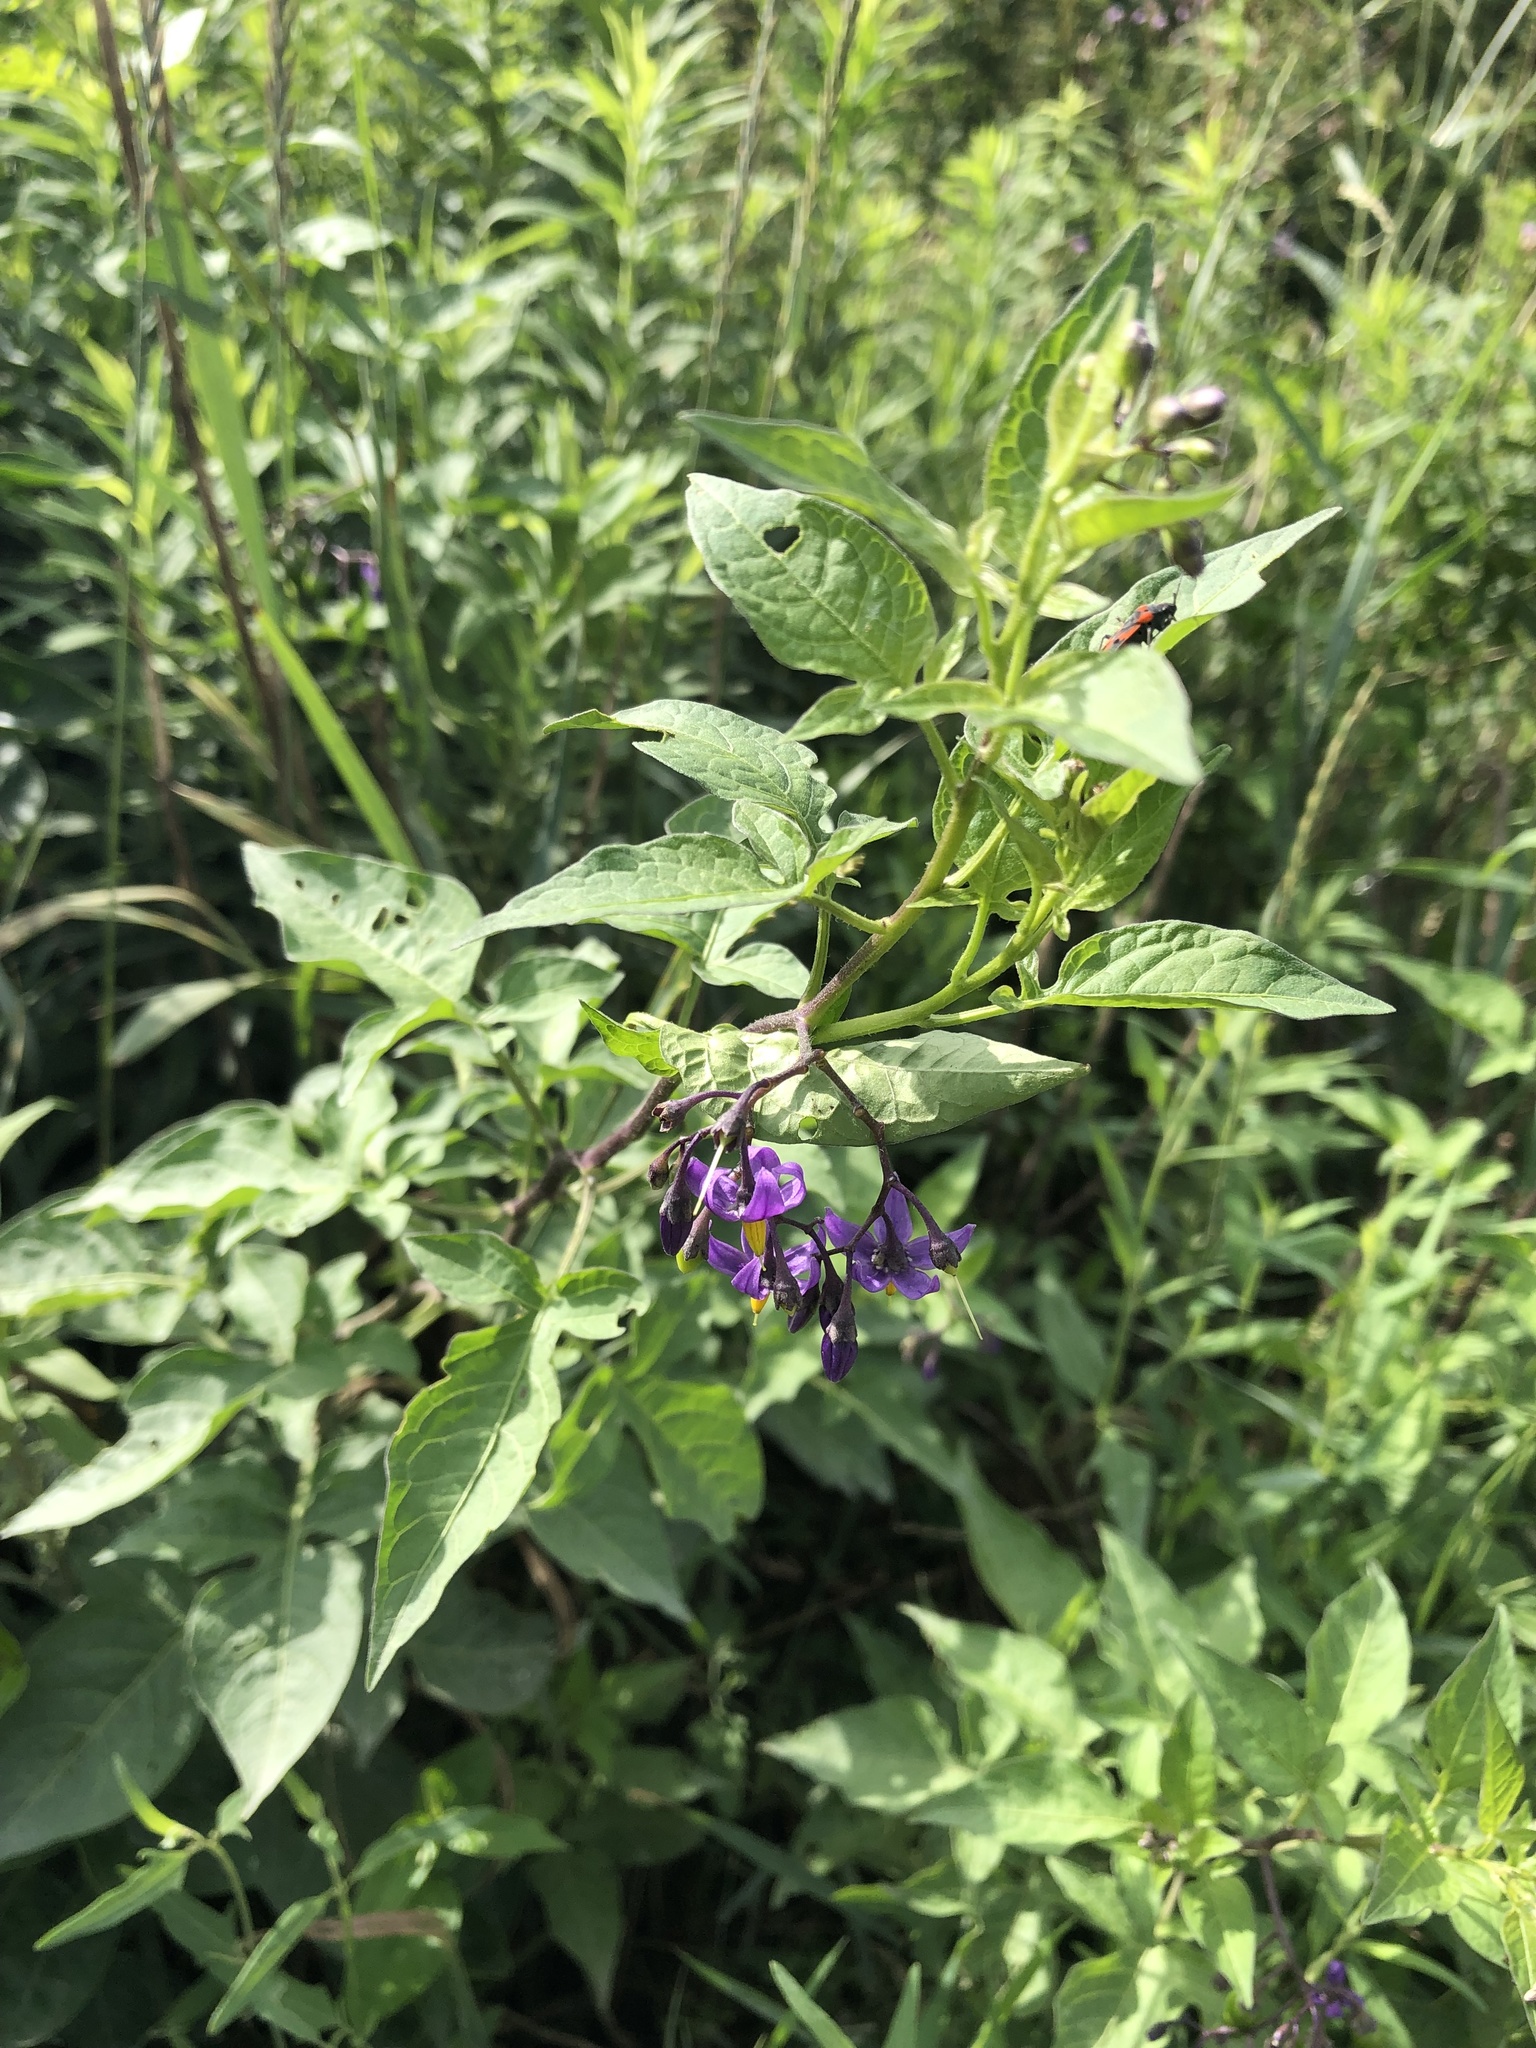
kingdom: Plantae
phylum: Tracheophyta
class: Magnoliopsida
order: Solanales
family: Solanaceae
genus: Solanum
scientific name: Solanum dulcamara
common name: Climbing nightshade
